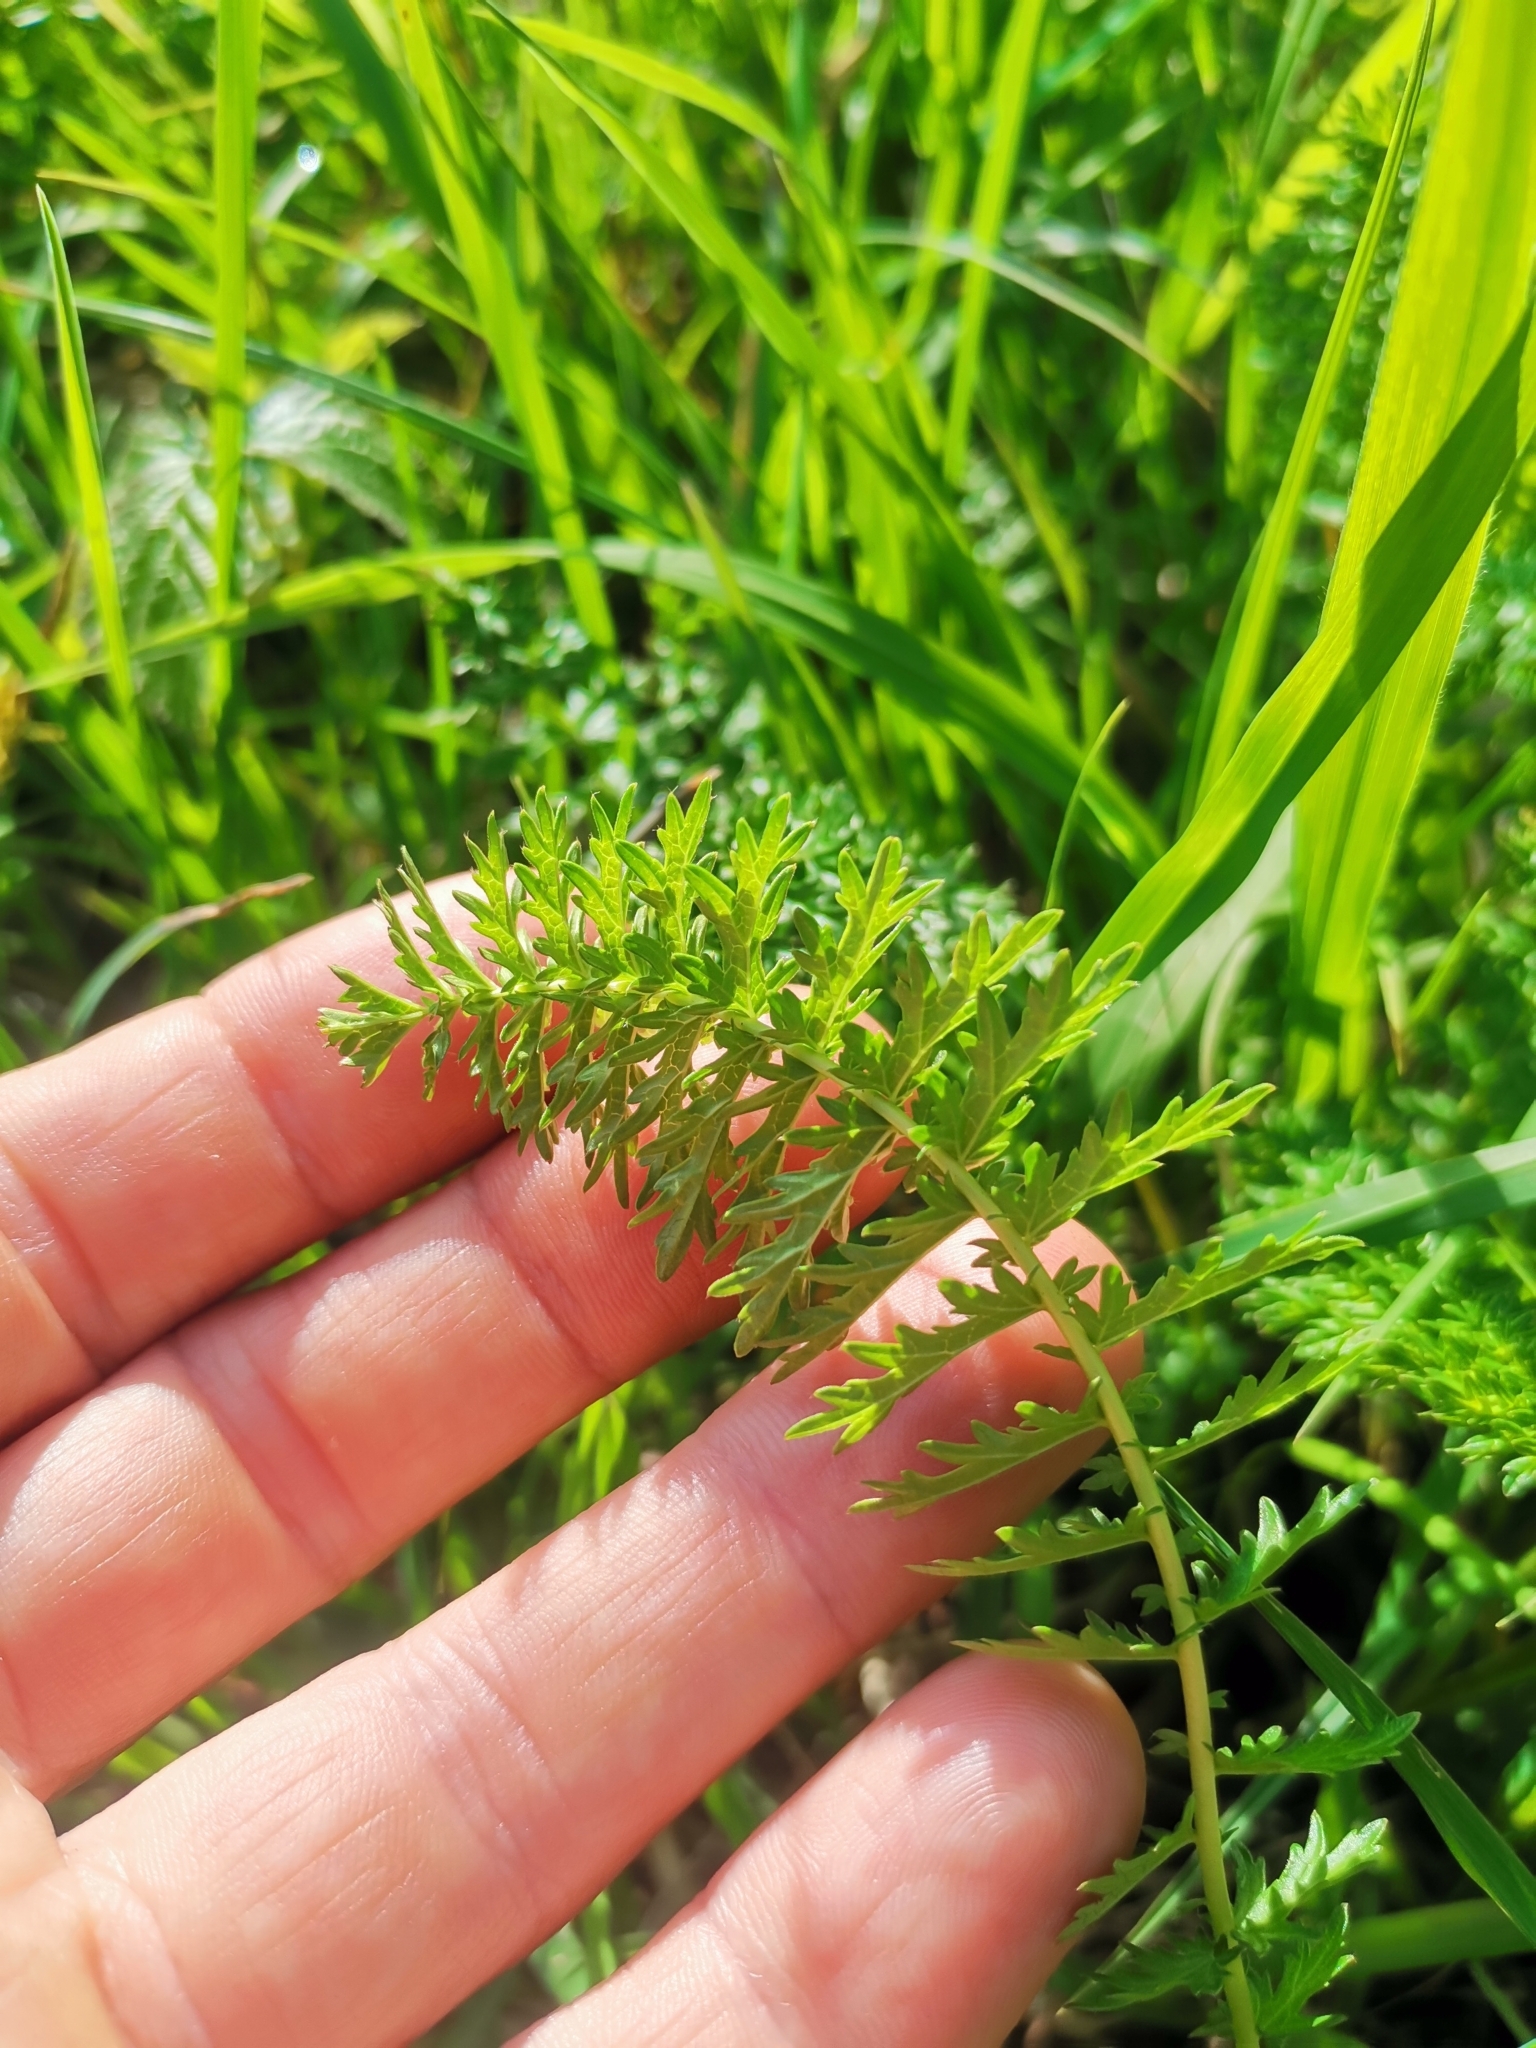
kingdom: Plantae
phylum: Tracheophyta
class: Magnoliopsida
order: Asterales
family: Asteraceae
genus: Achillea
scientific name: Achillea millefolium
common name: Yarrow
